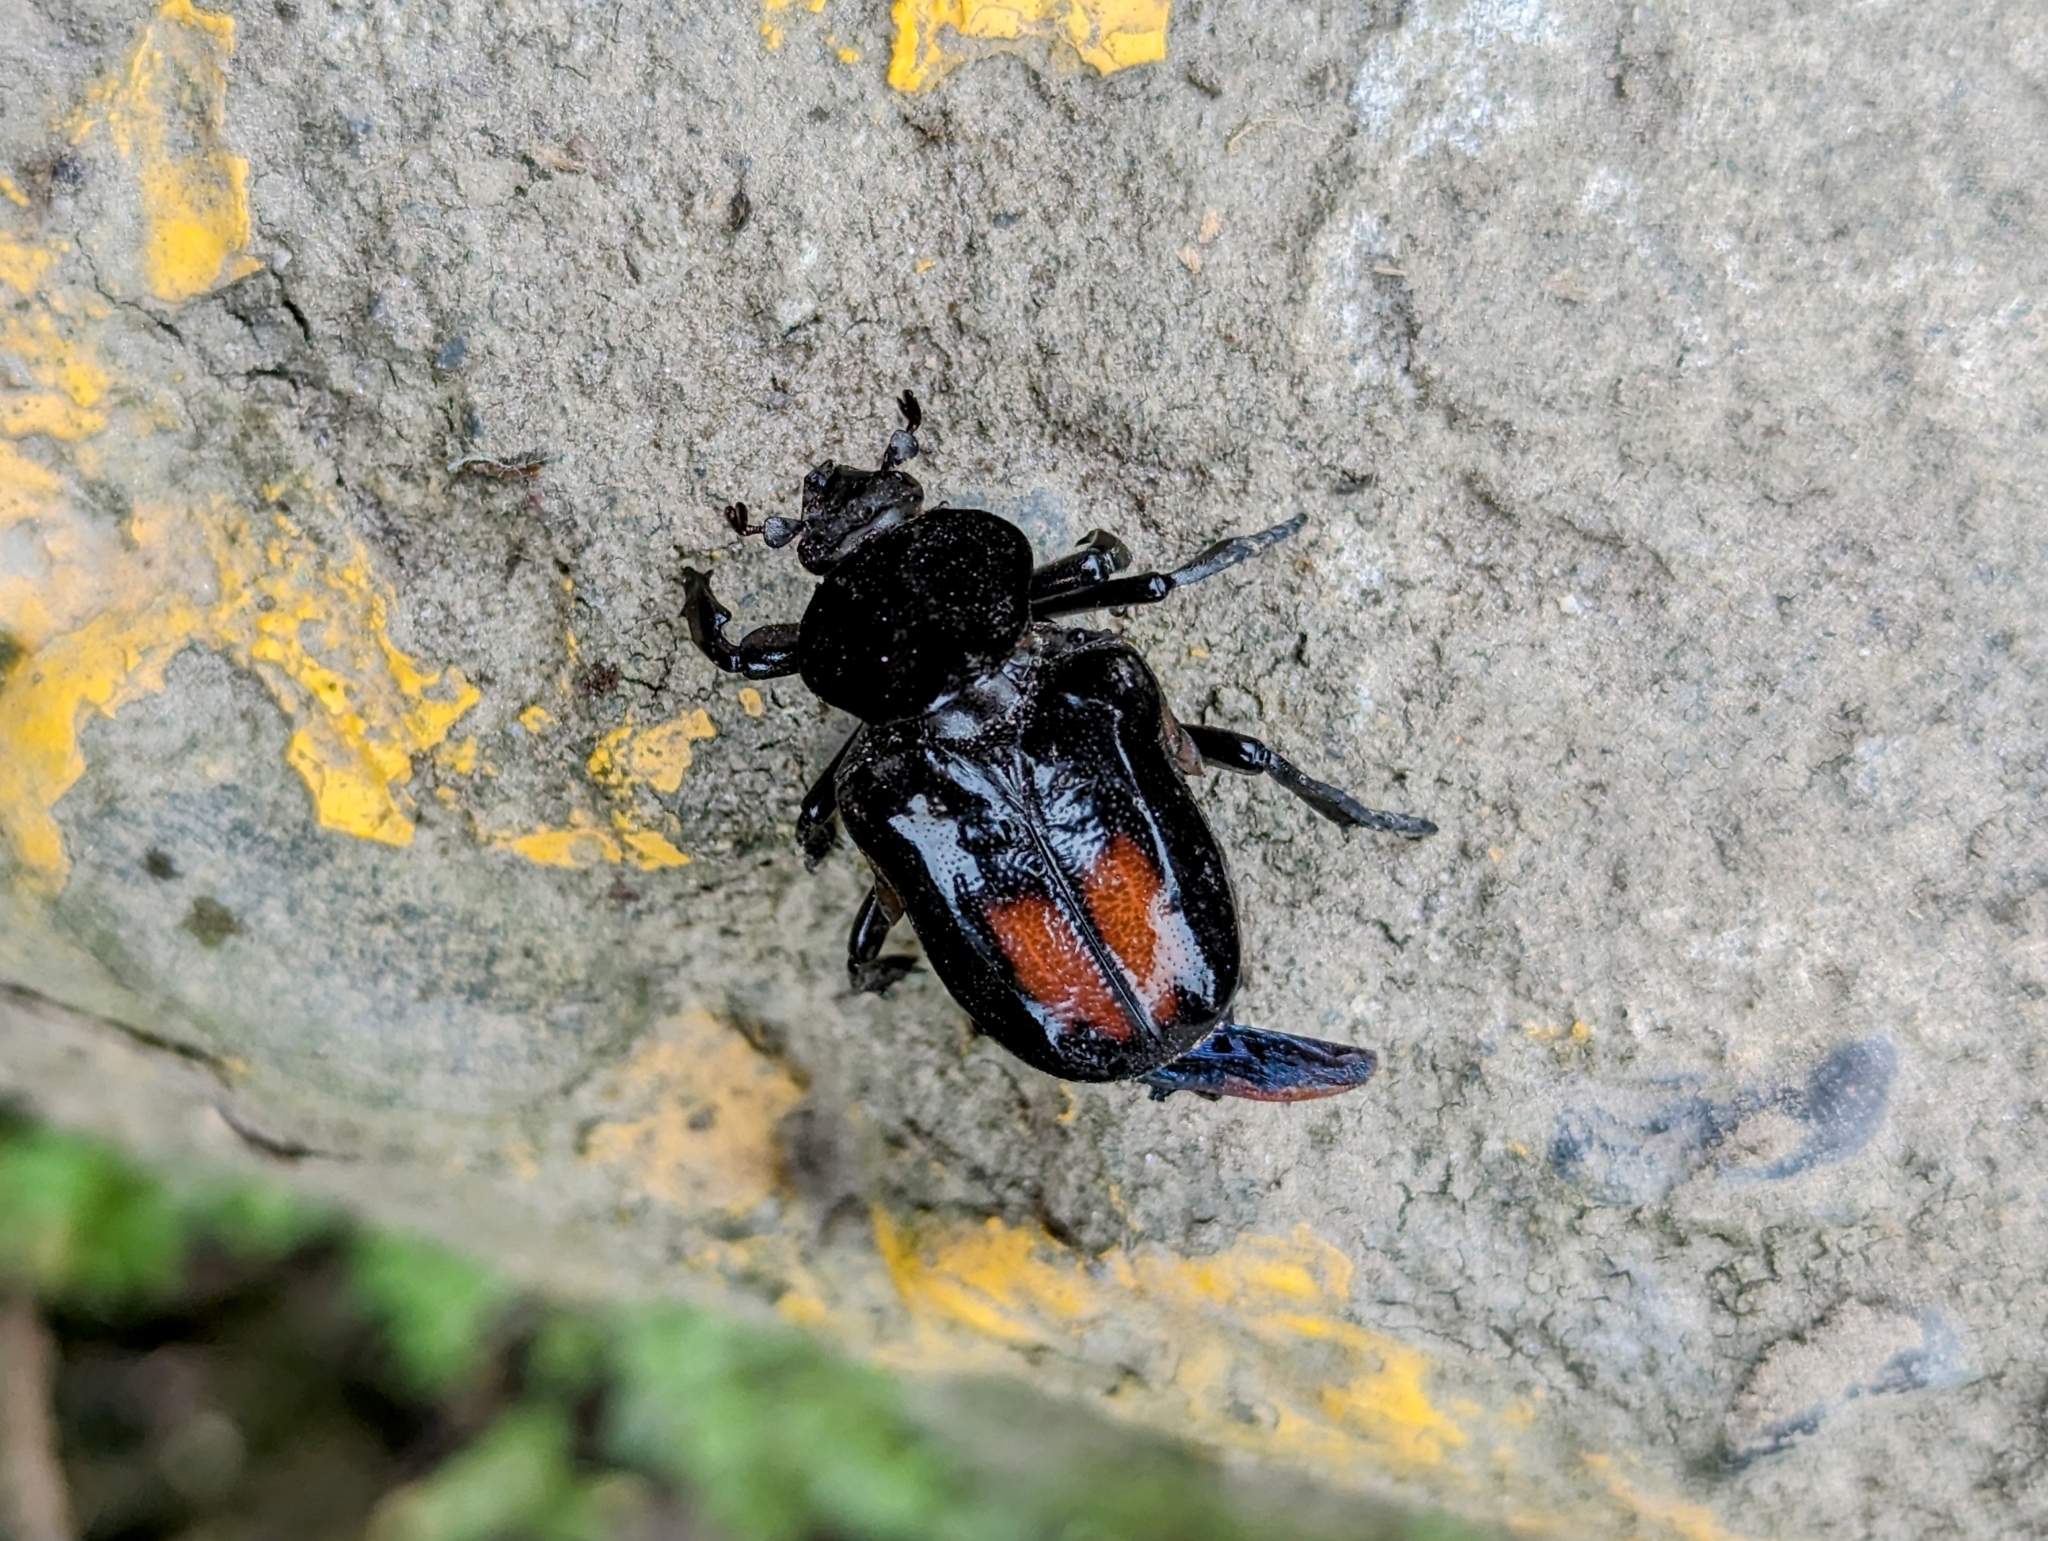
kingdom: Animalia
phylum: Arthropoda
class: Insecta
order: Coleoptera
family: Scarabaeidae
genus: Cyclidius
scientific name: Cyclidius elongatus
